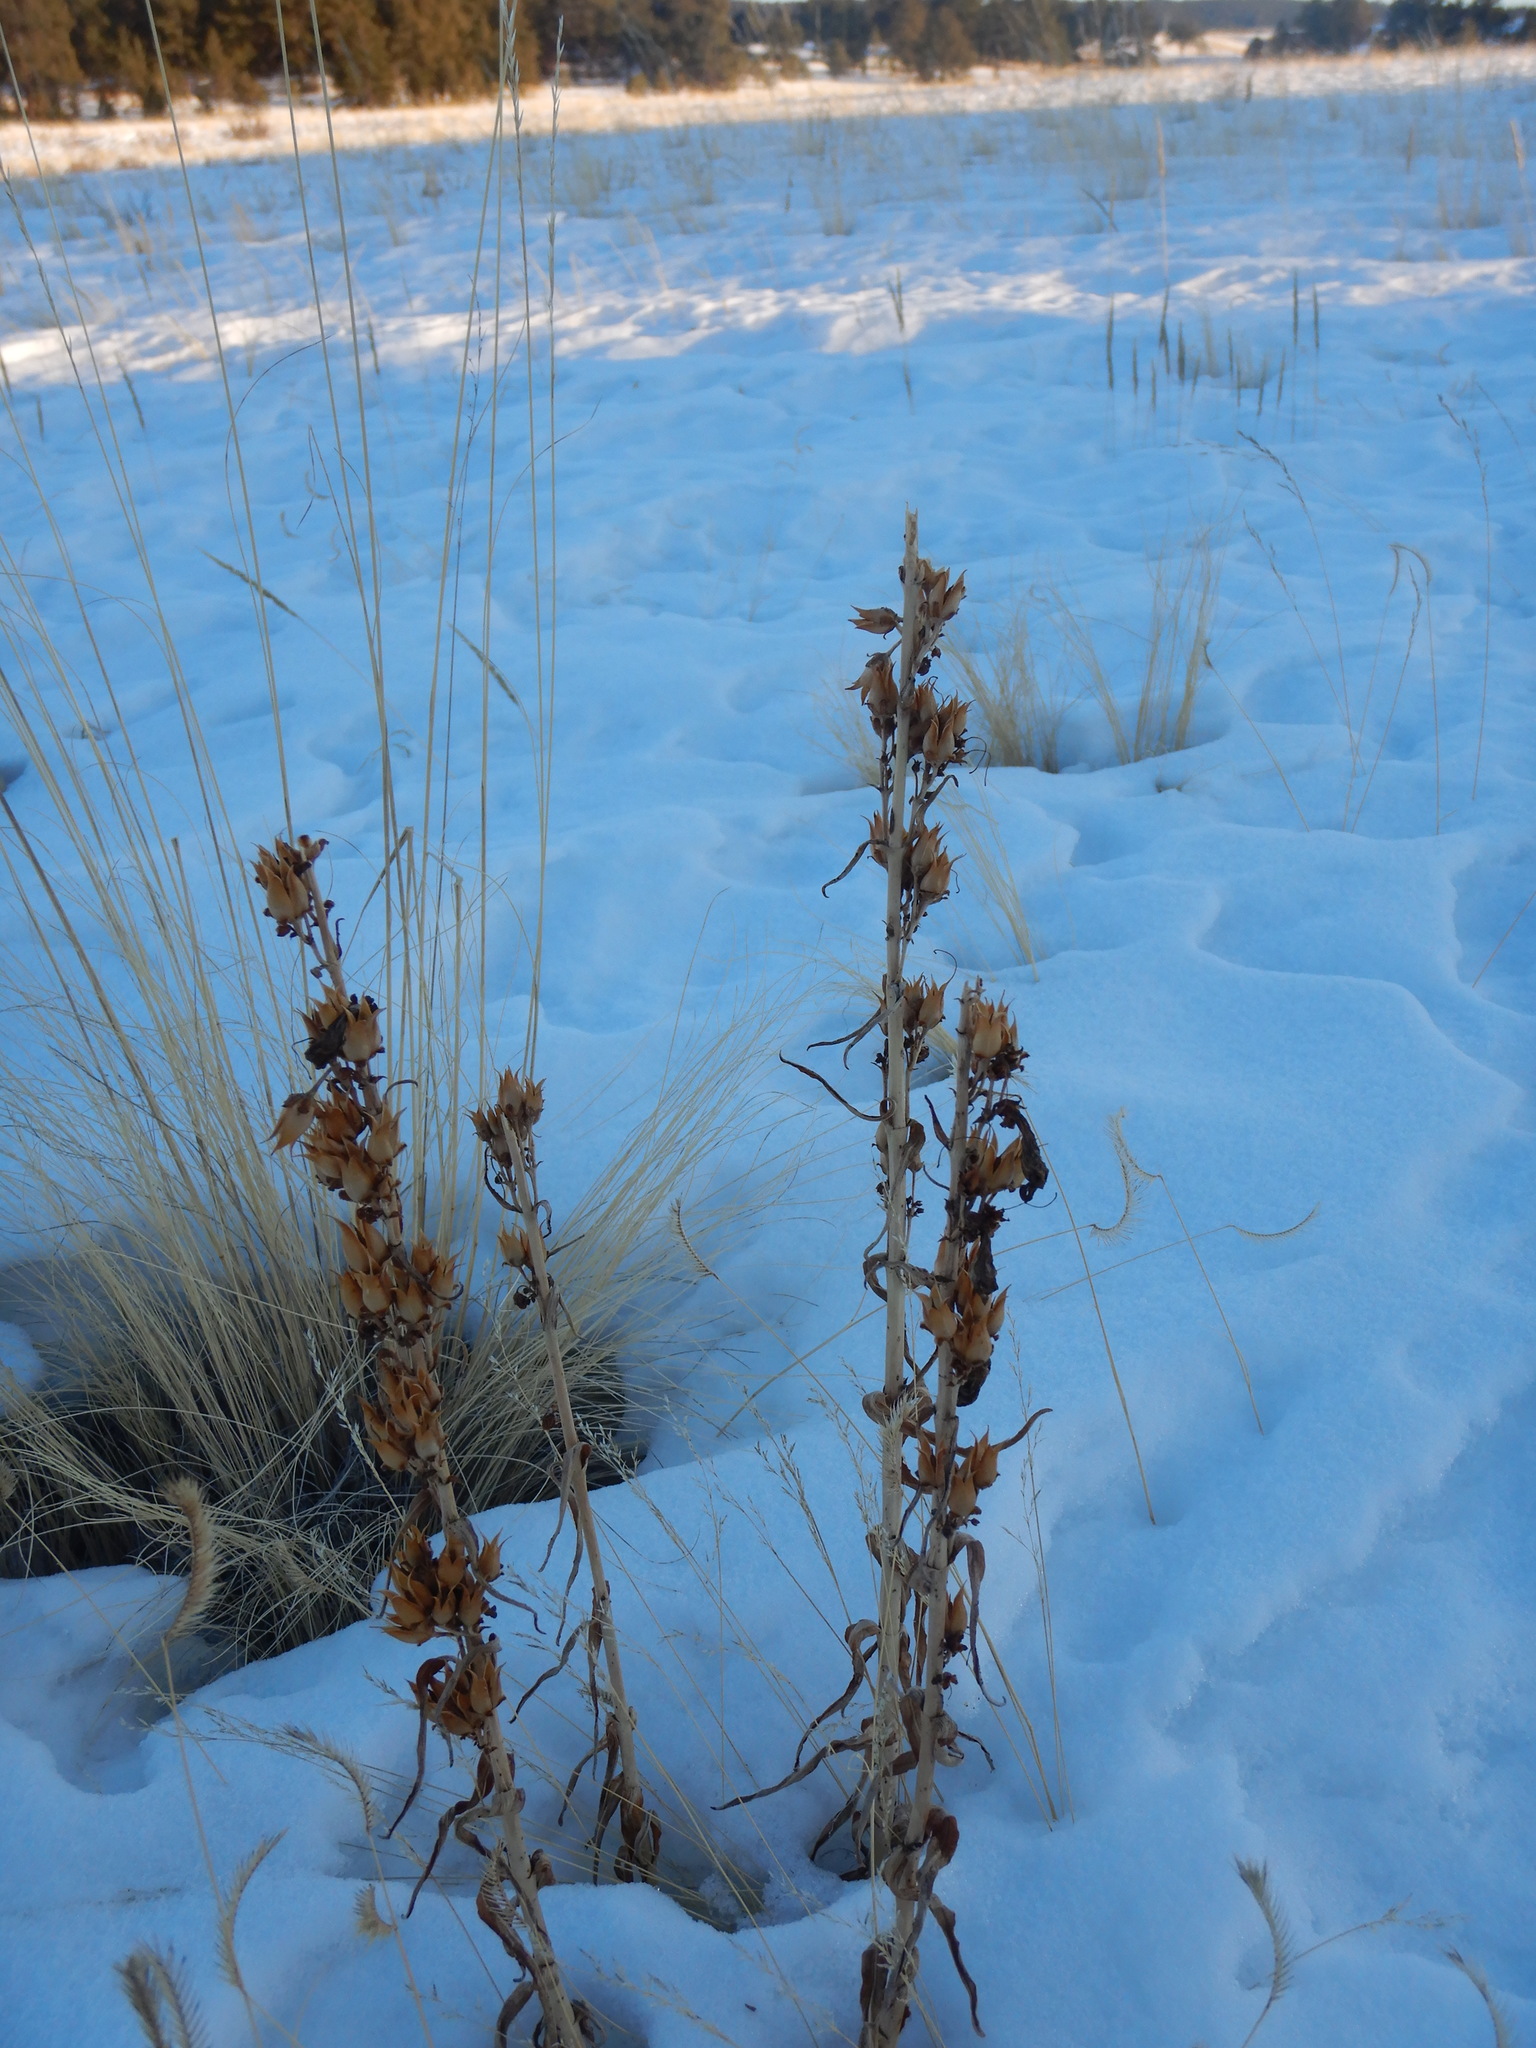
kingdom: Plantae
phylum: Tracheophyta
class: Magnoliopsida
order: Lamiales
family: Plantaginaceae
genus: Penstemon
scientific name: Penstemon
